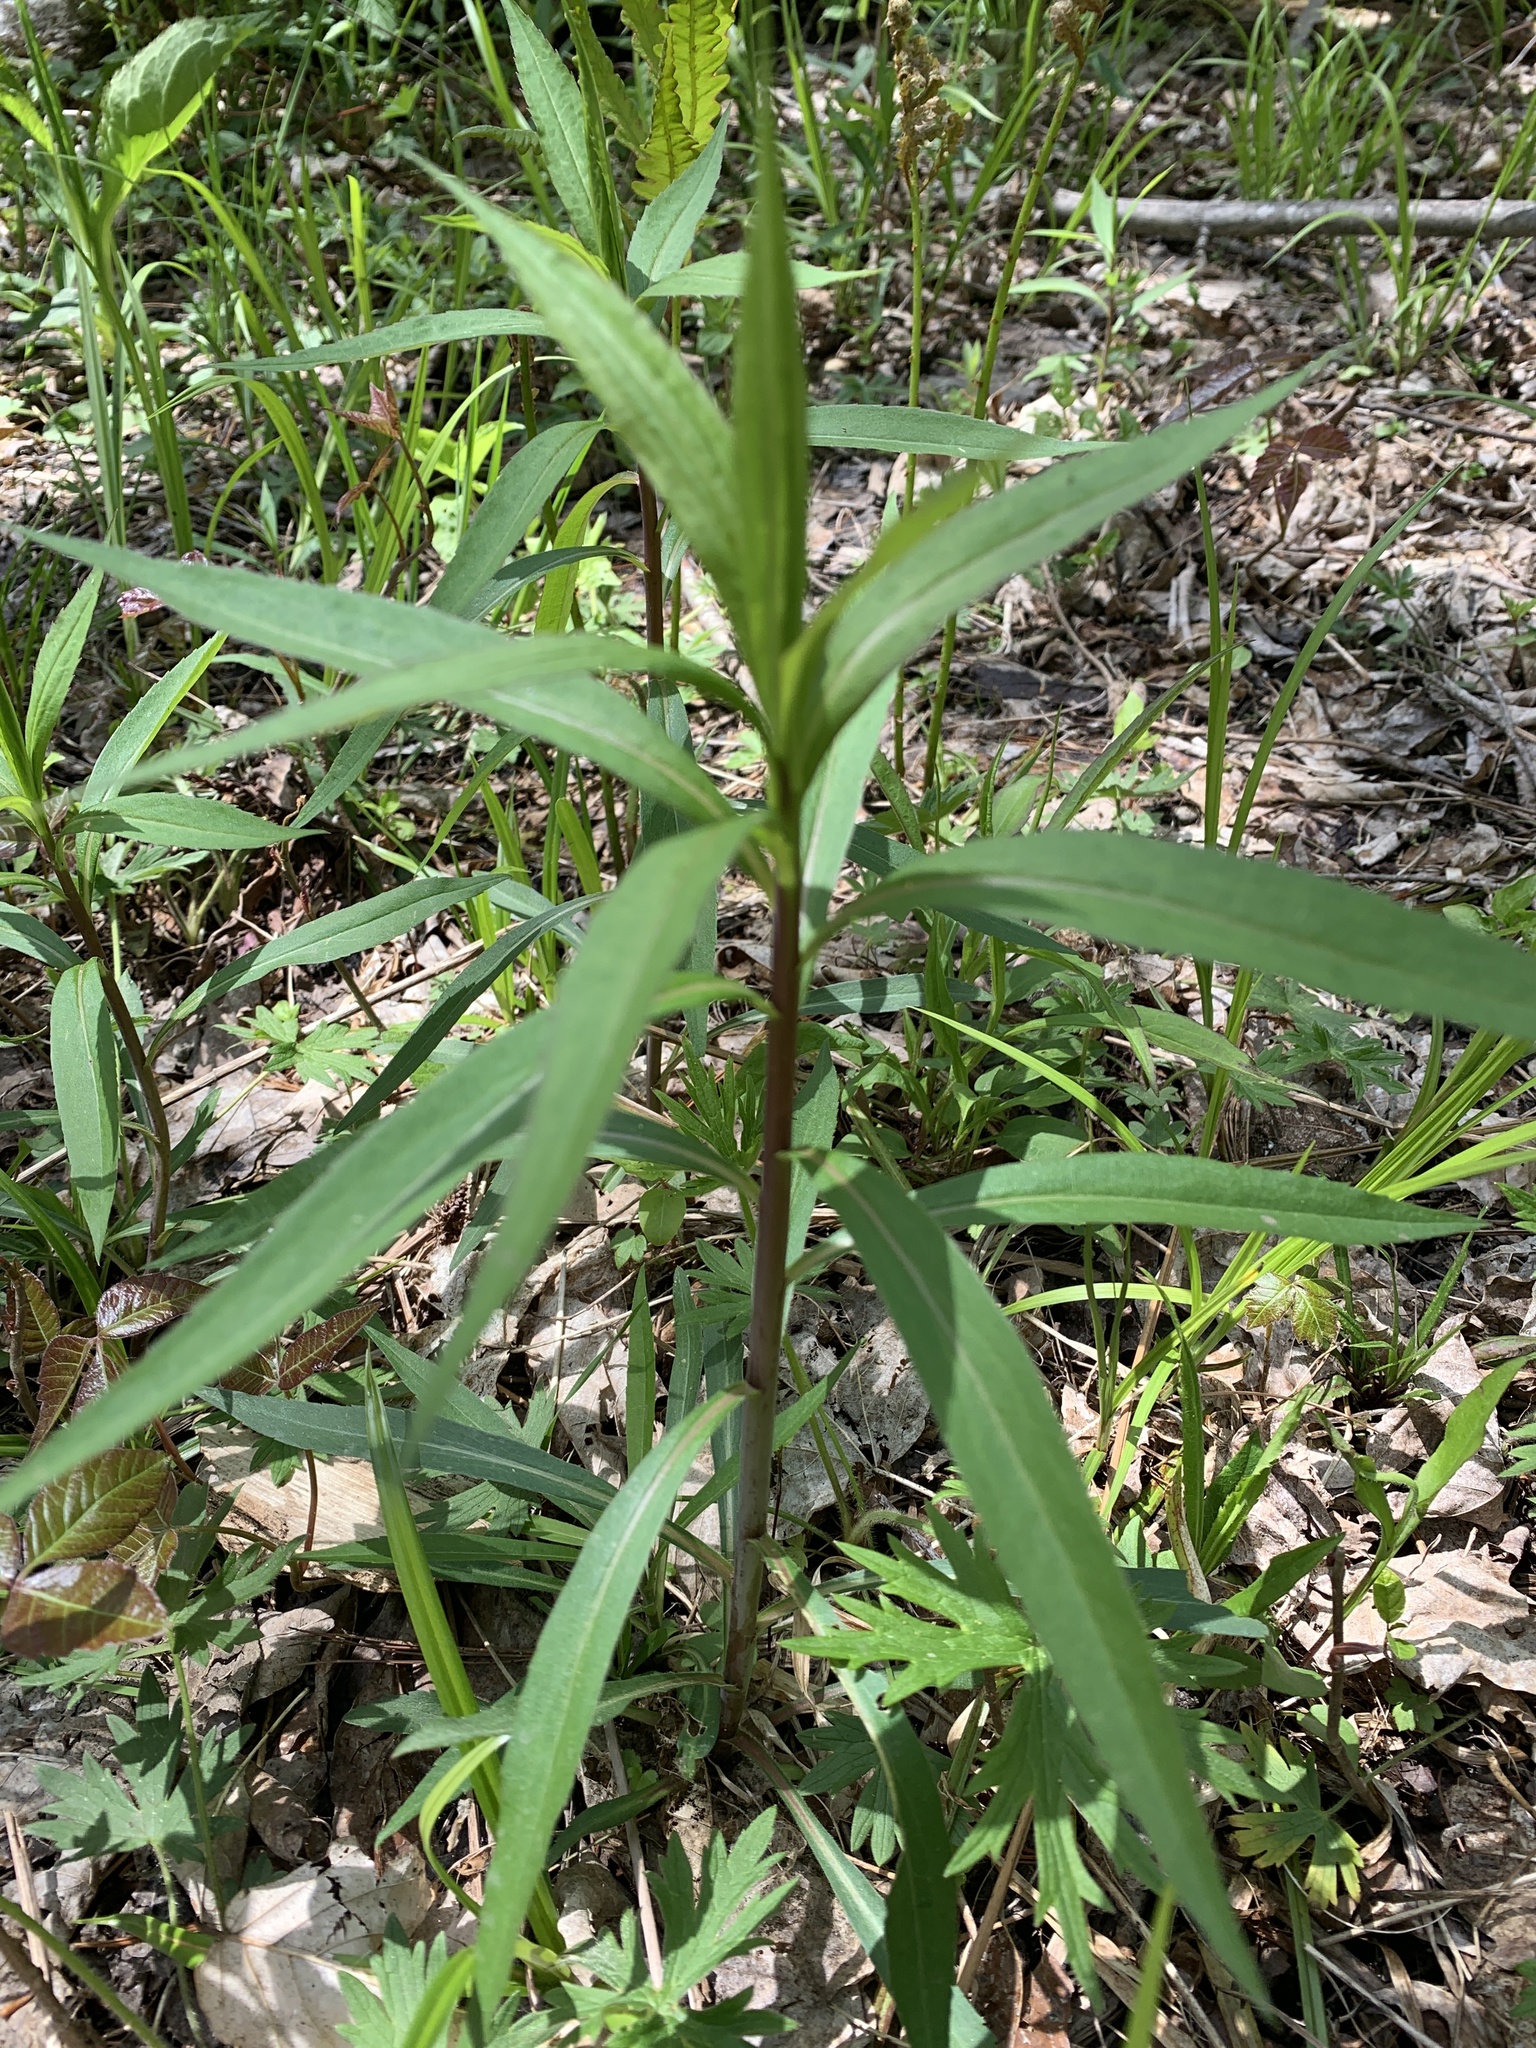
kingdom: Plantae
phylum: Tracheophyta
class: Magnoliopsida
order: Asterales
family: Asteraceae
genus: Solidago
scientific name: Solidago gigantea
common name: Giant goldenrod
